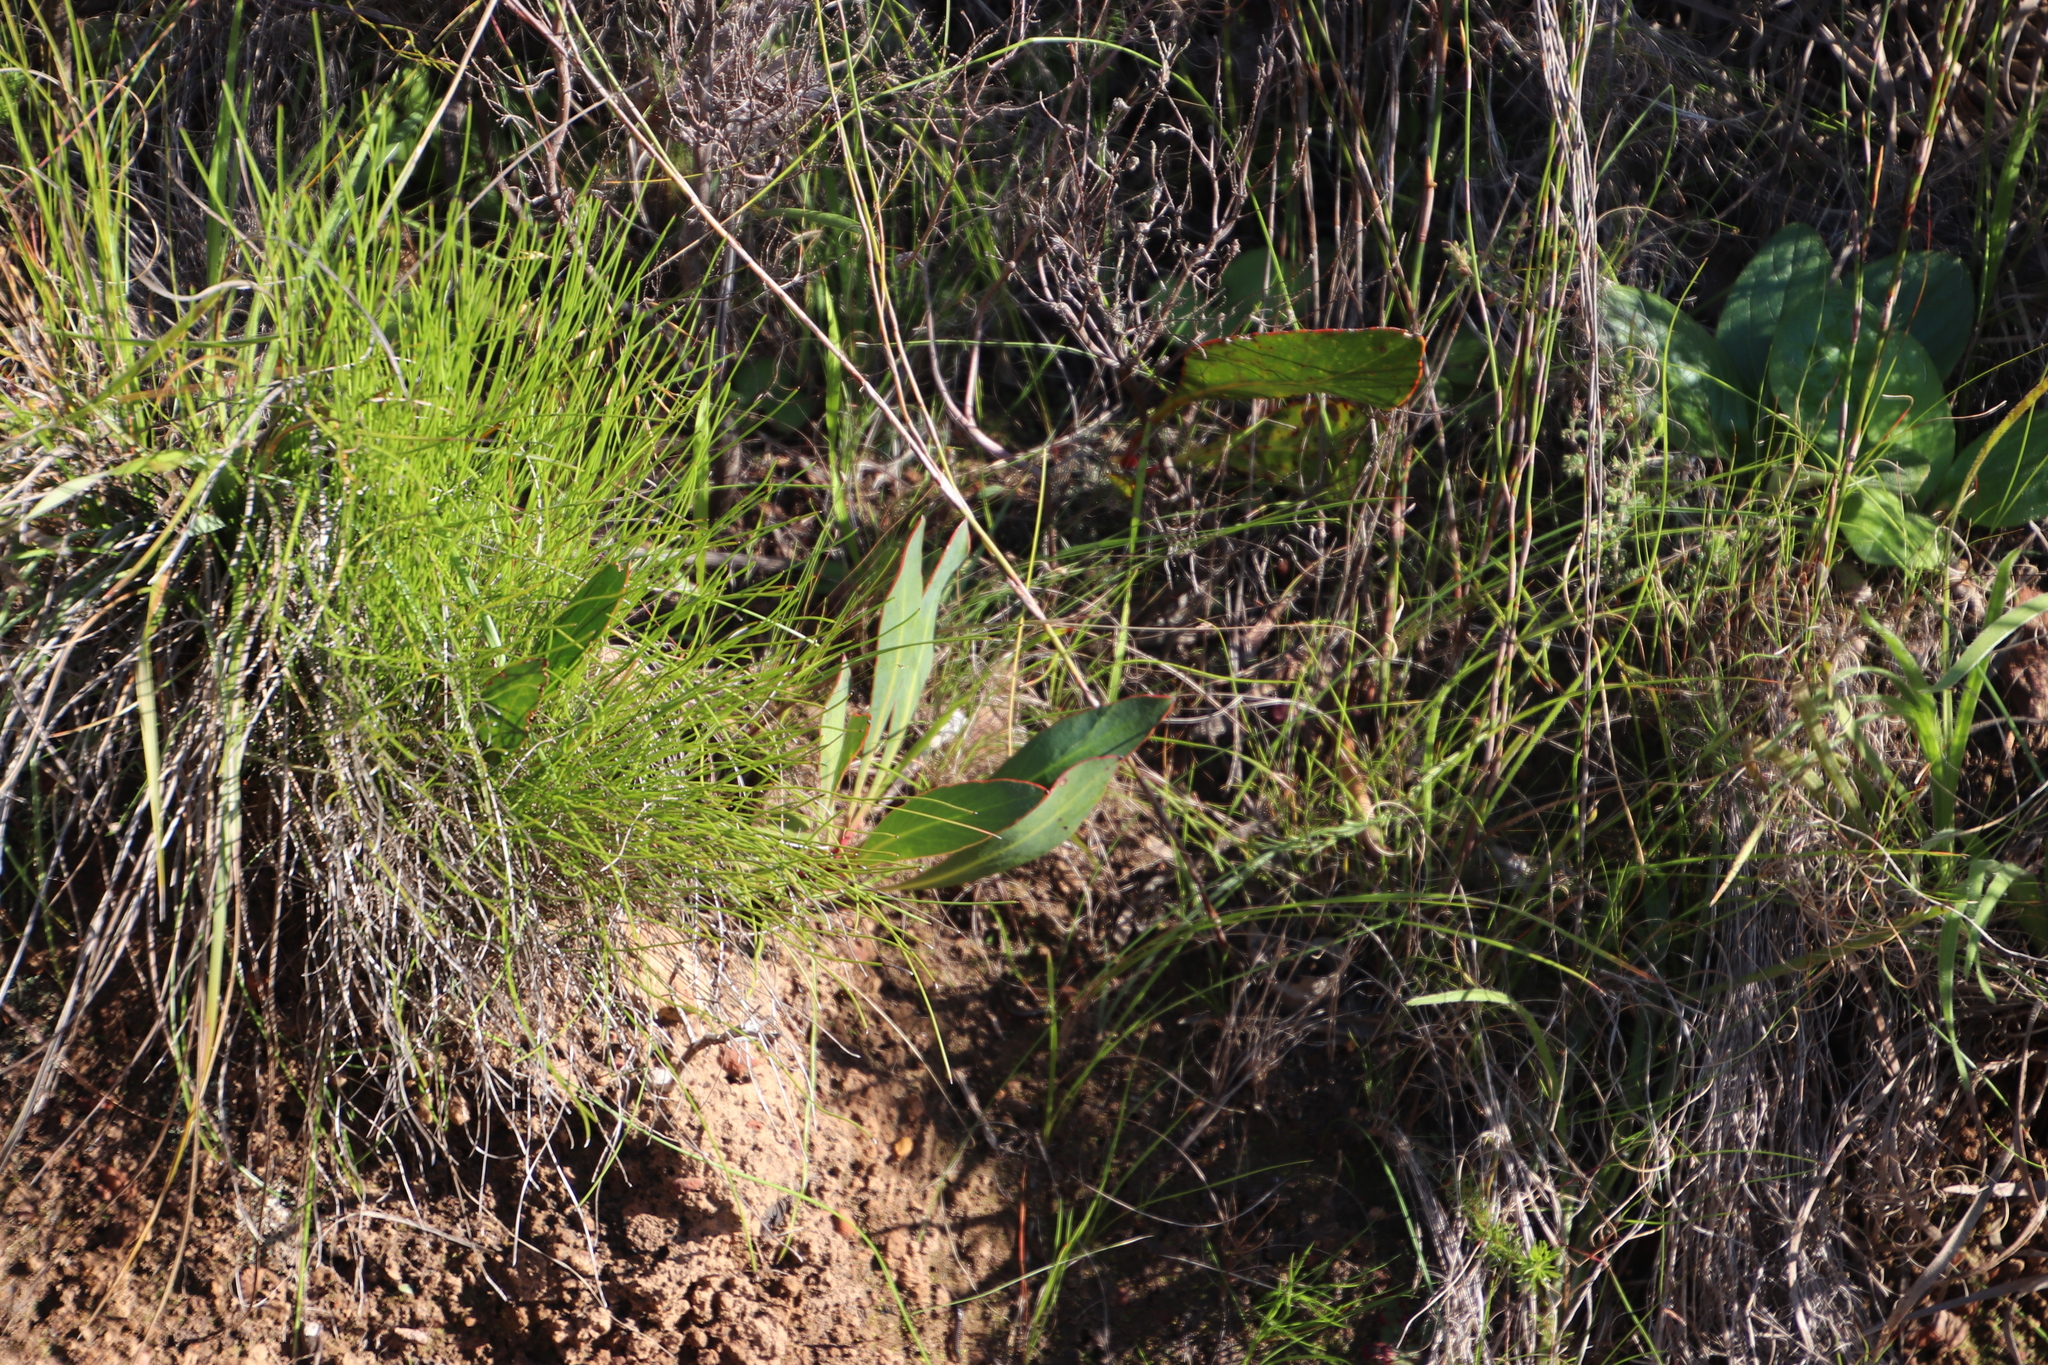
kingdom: Plantae
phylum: Tracheophyta
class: Magnoliopsida
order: Proteales
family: Proteaceae
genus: Protea
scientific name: Protea acaulos
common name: Common ground sugarbush
